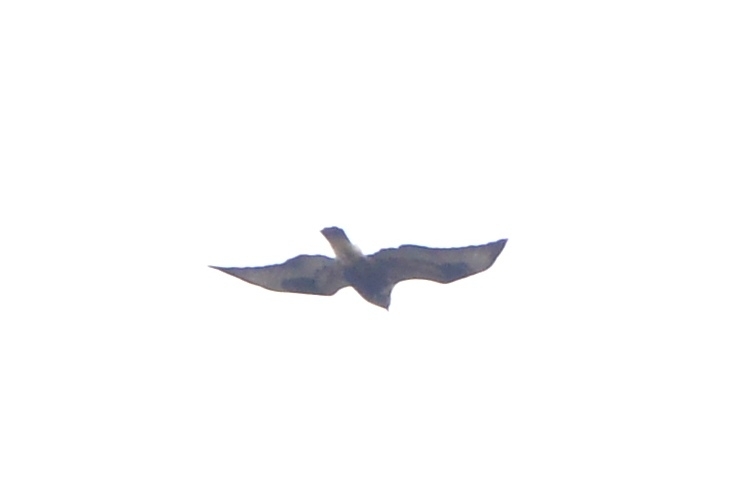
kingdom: Animalia
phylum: Chordata
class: Aves
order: Accipitriformes
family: Accipitridae
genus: Buteo
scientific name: Buteo lagopus
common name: Rough-legged buzzard
